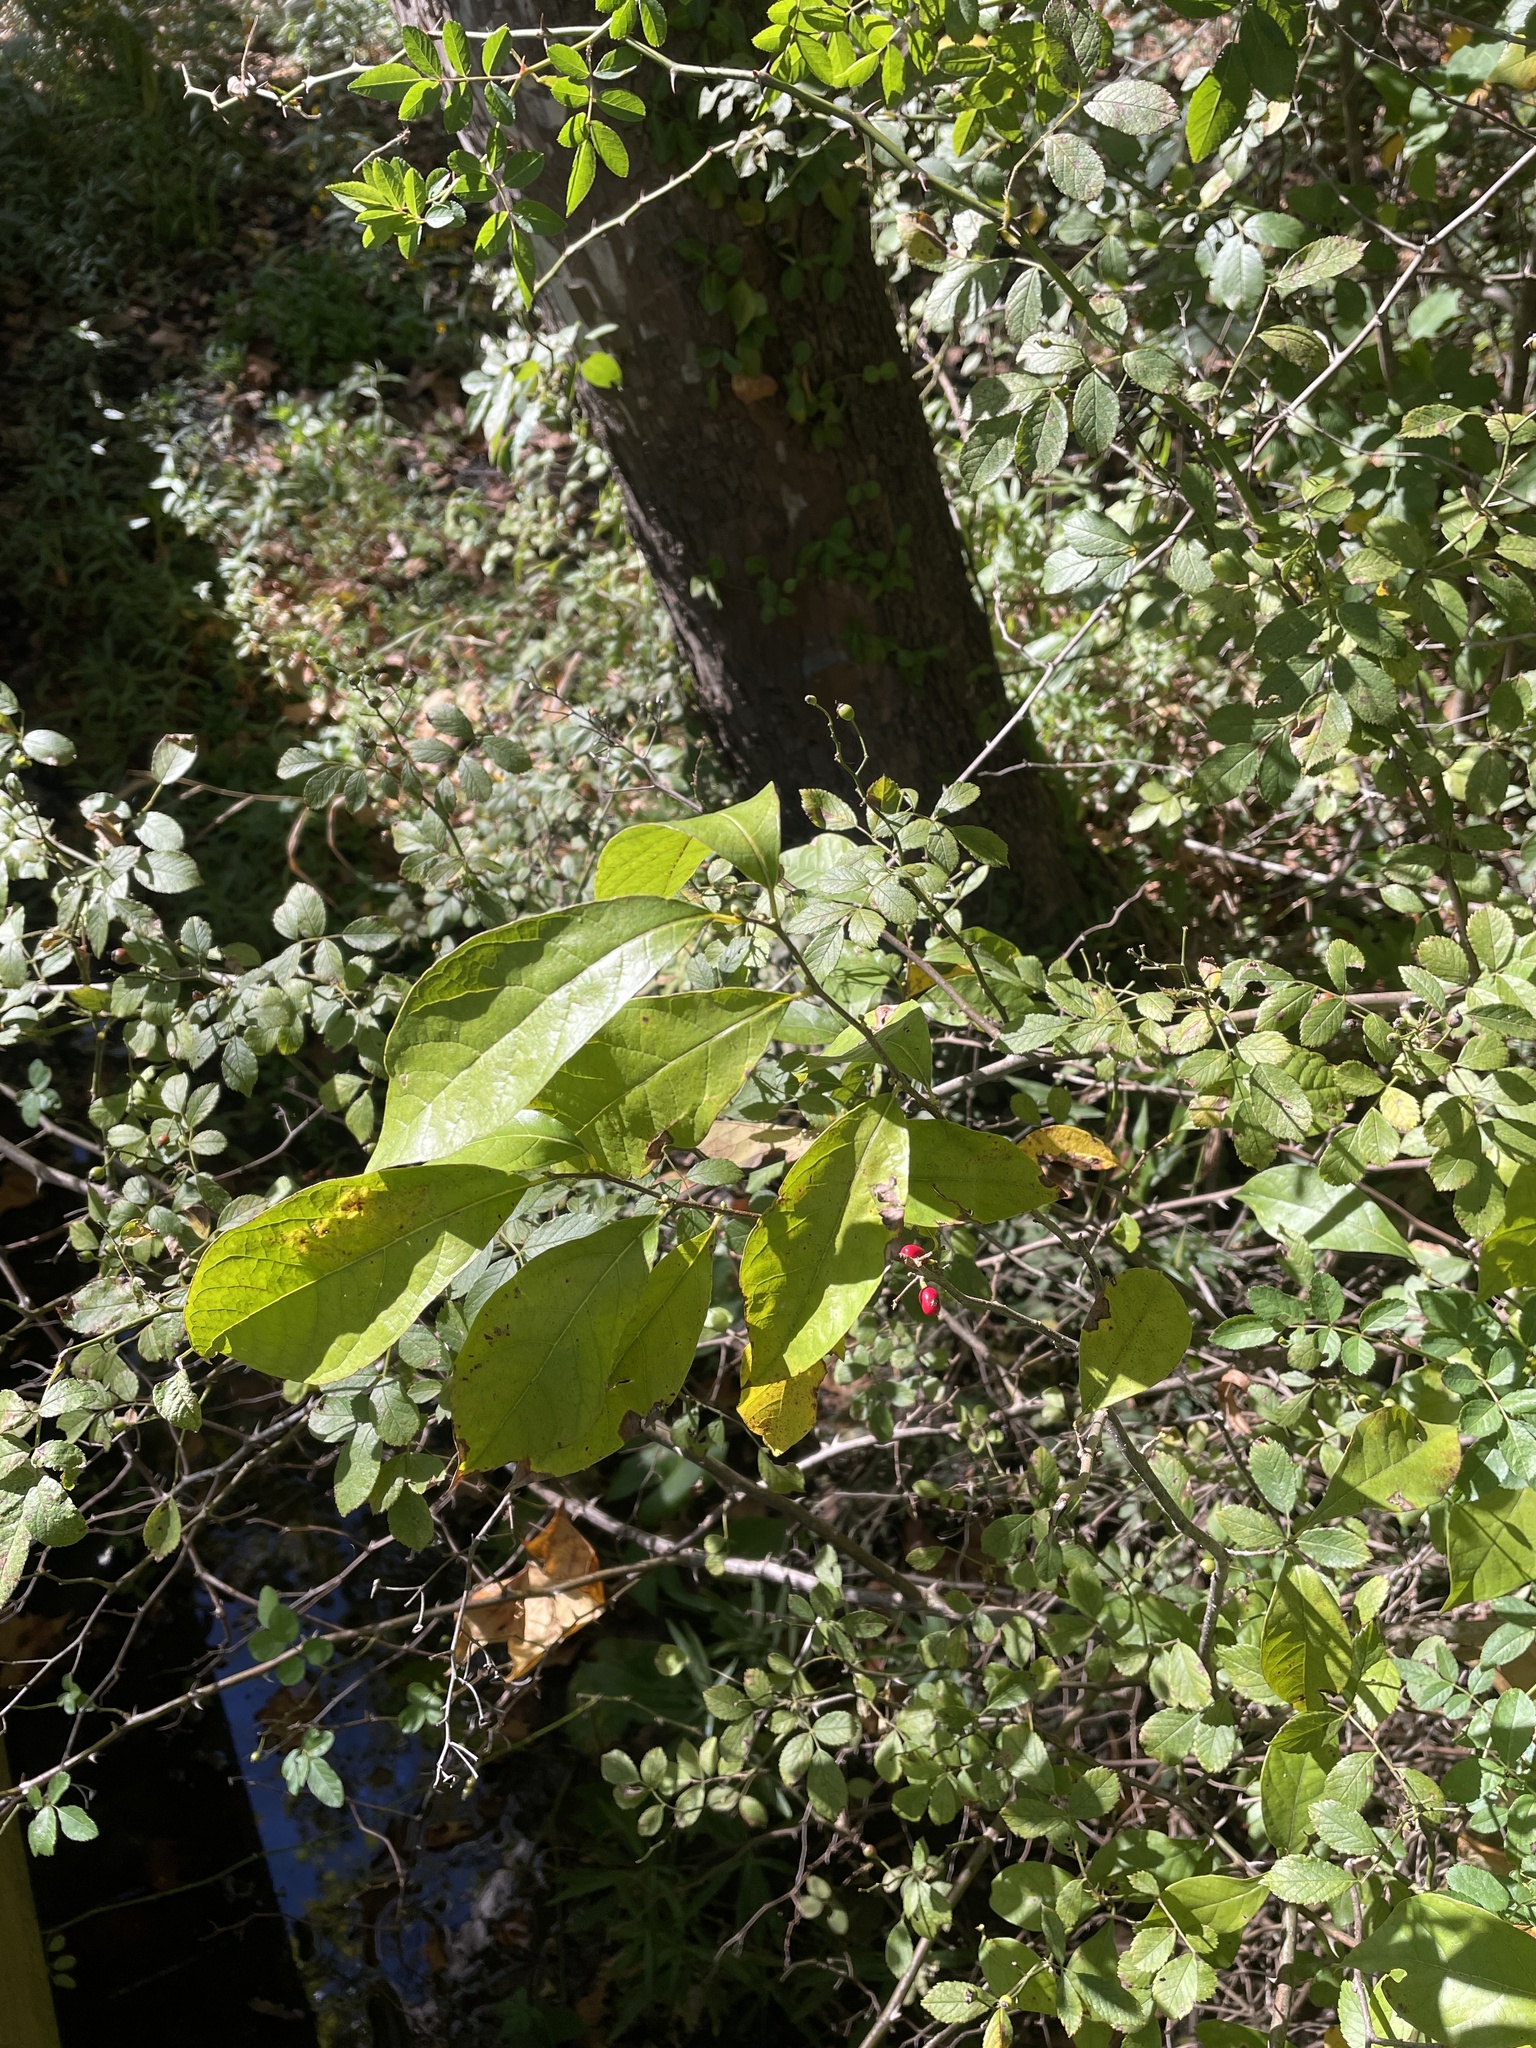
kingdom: Plantae
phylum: Tracheophyta
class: Magnoliopsida
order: Laurales
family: Lauraceae
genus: Lindera
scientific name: Lindera benzoin
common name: Spicebush
